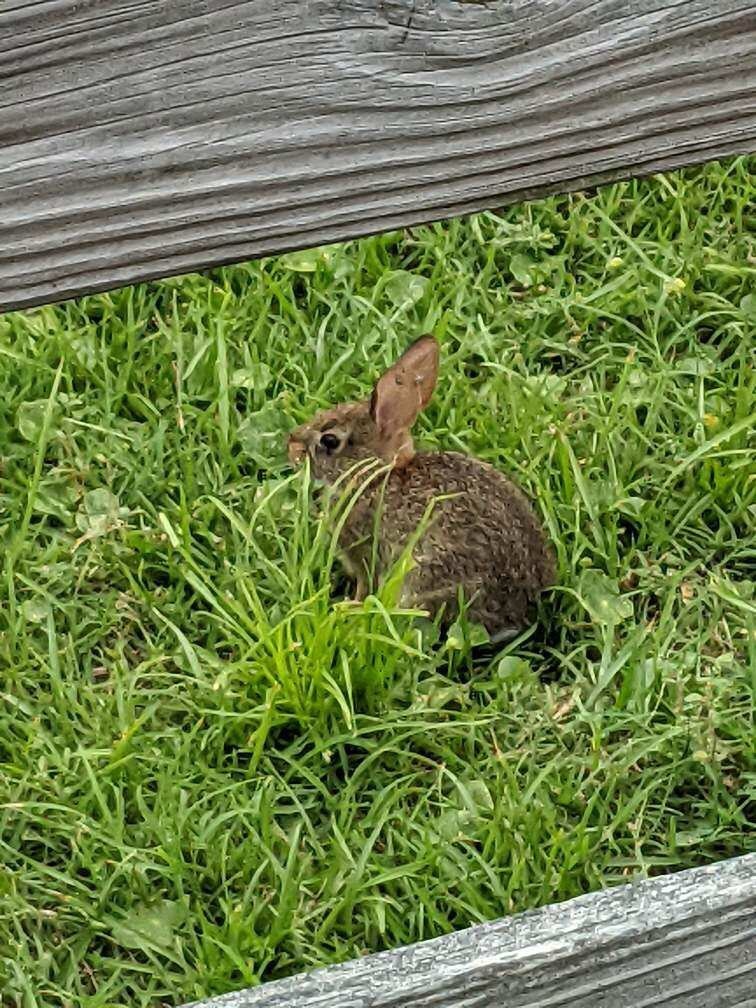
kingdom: Animalia
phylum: Chordata
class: Mammalia
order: Lagomorpha
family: Leporidae
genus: Sylvilagus
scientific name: Sylvilagus floridanus
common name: Eastern cottontail
